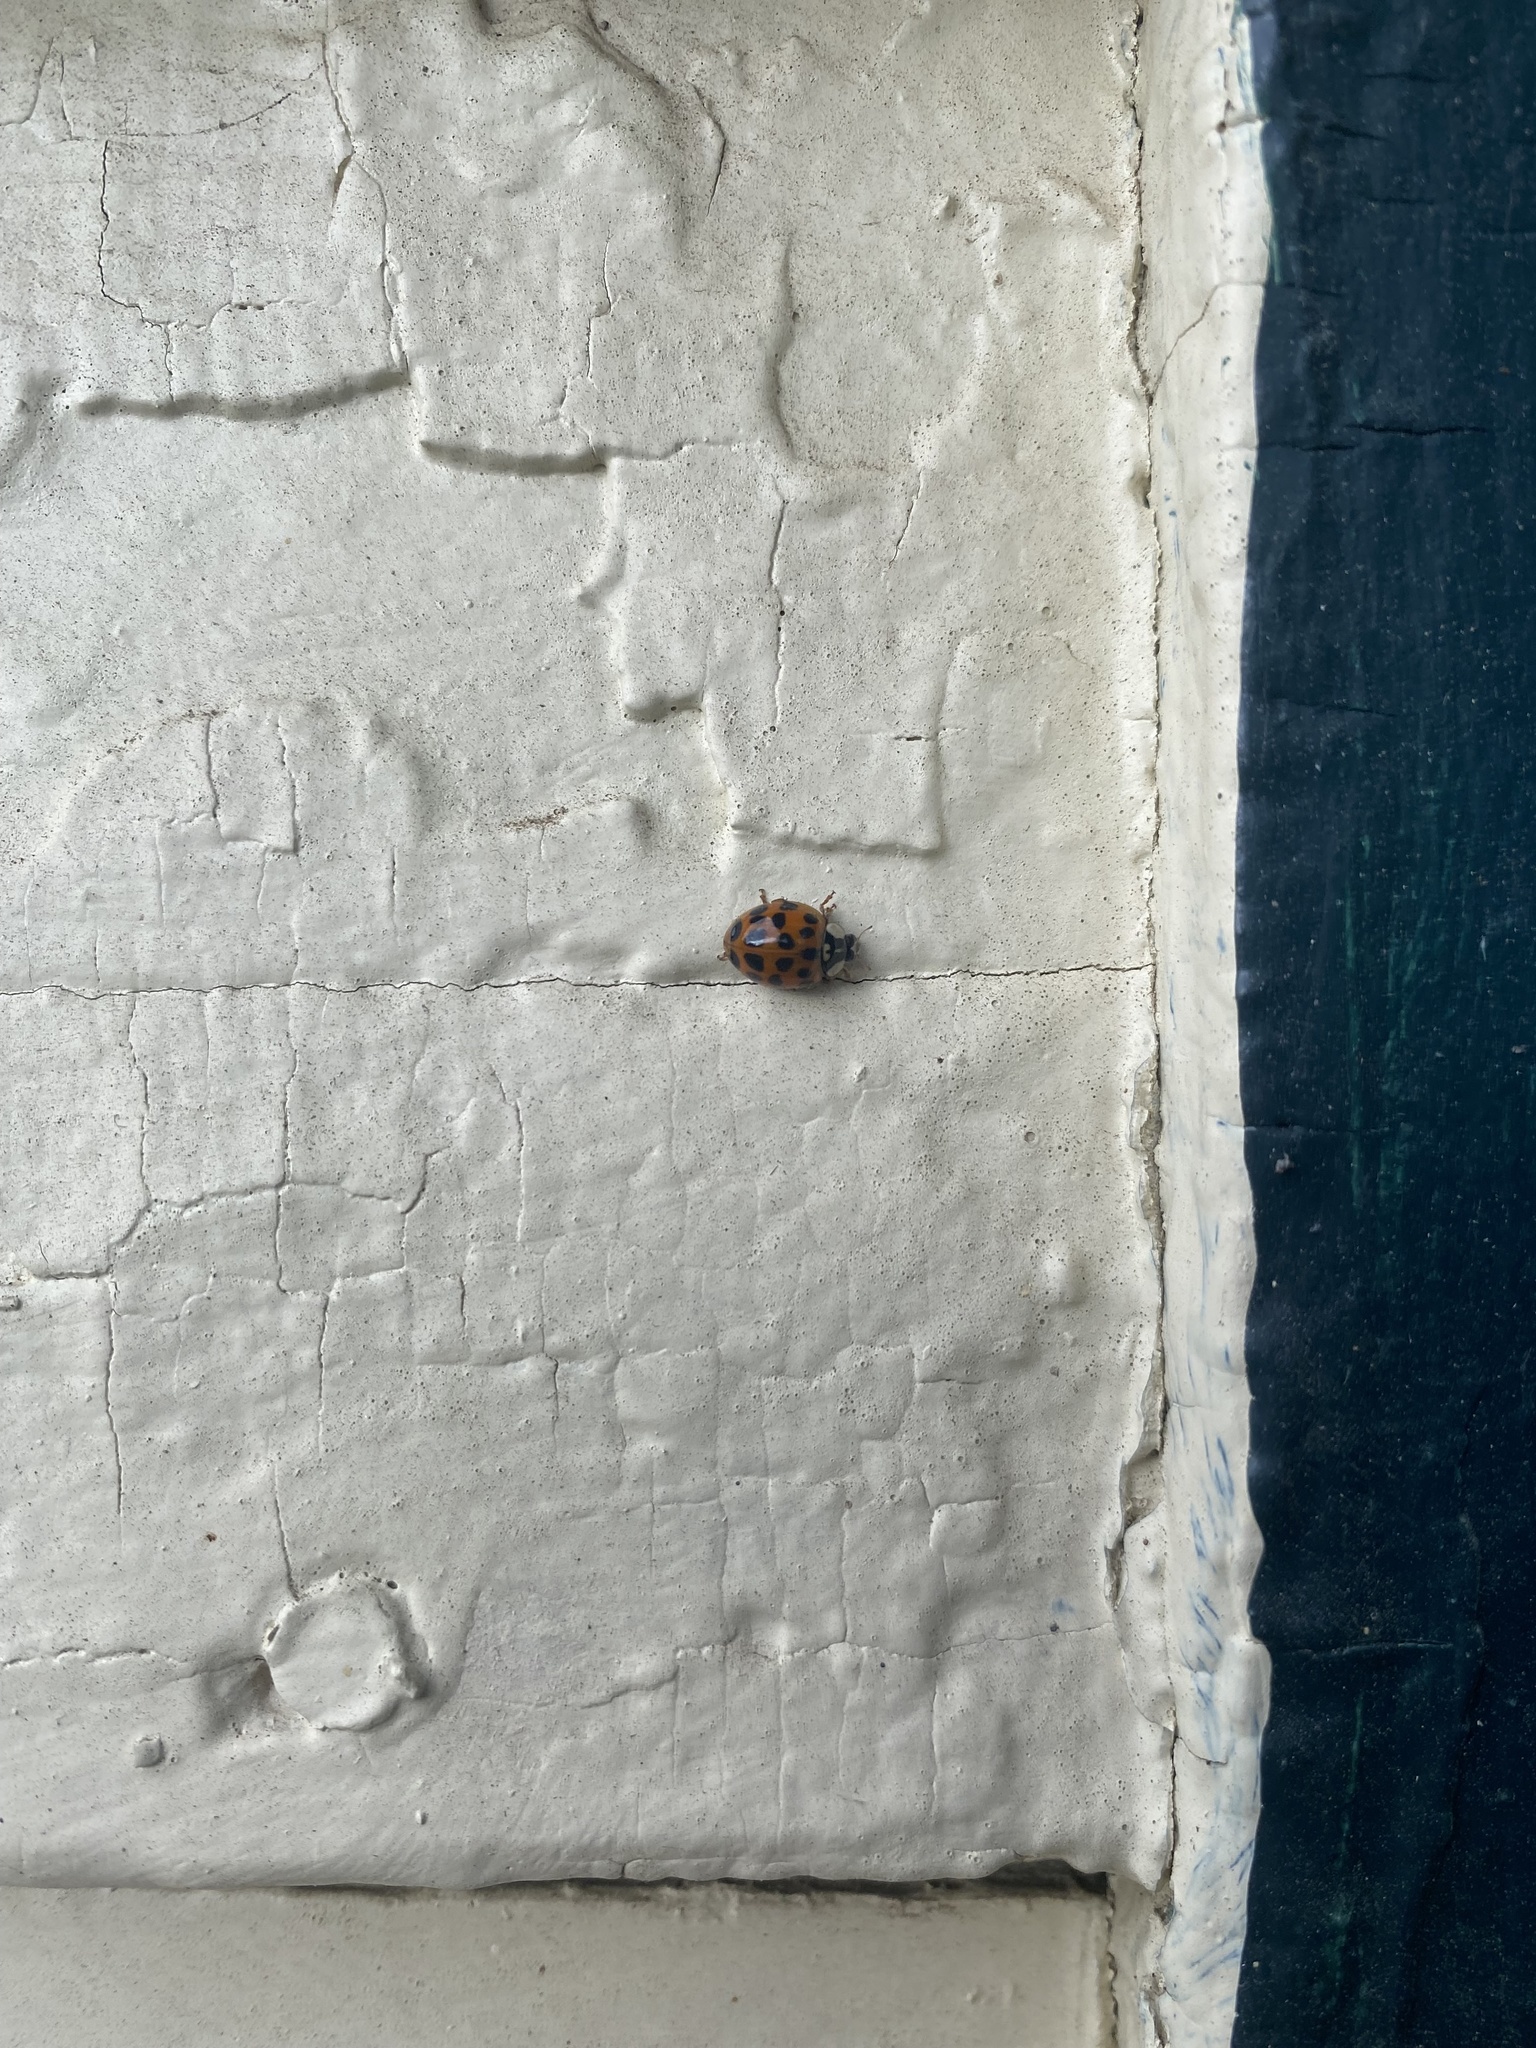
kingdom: Animalia
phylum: Arthropoda
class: Insecta
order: Coleoptera
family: Coccinellidae
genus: Harmonia
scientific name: Harmonia axyridis
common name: Harlequin ladybird
